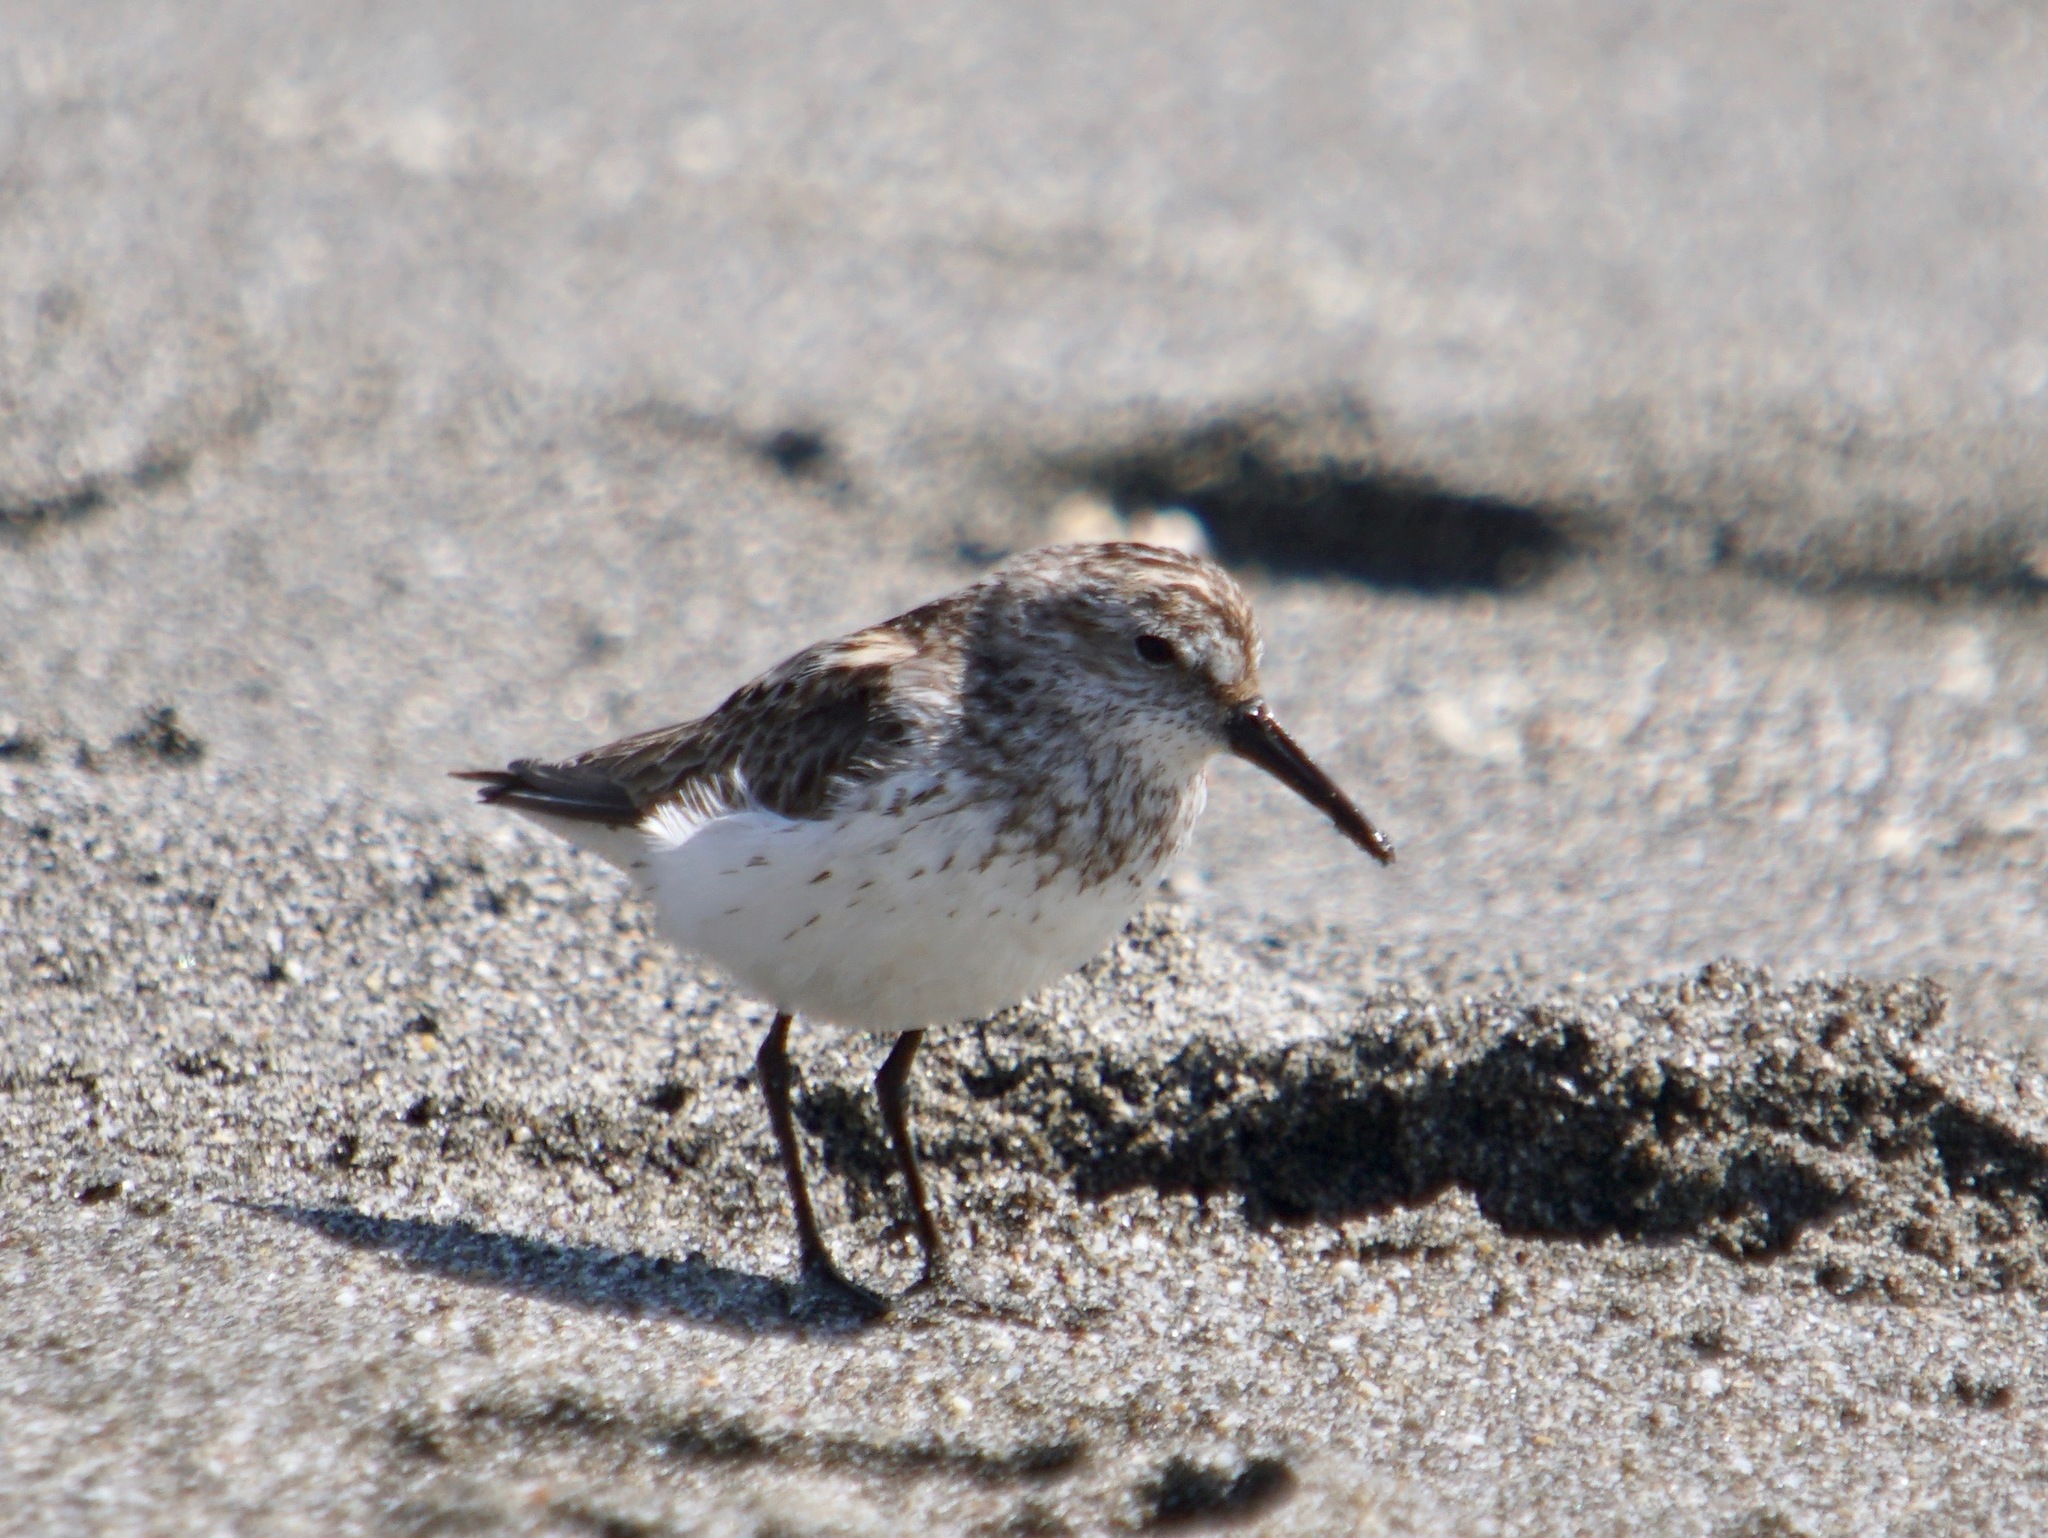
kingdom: Animalia
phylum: Chordata
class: Aves
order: Charadriiformes
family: Scolopacidae
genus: Calidris
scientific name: Calidris mauri
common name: Western sandpiper
